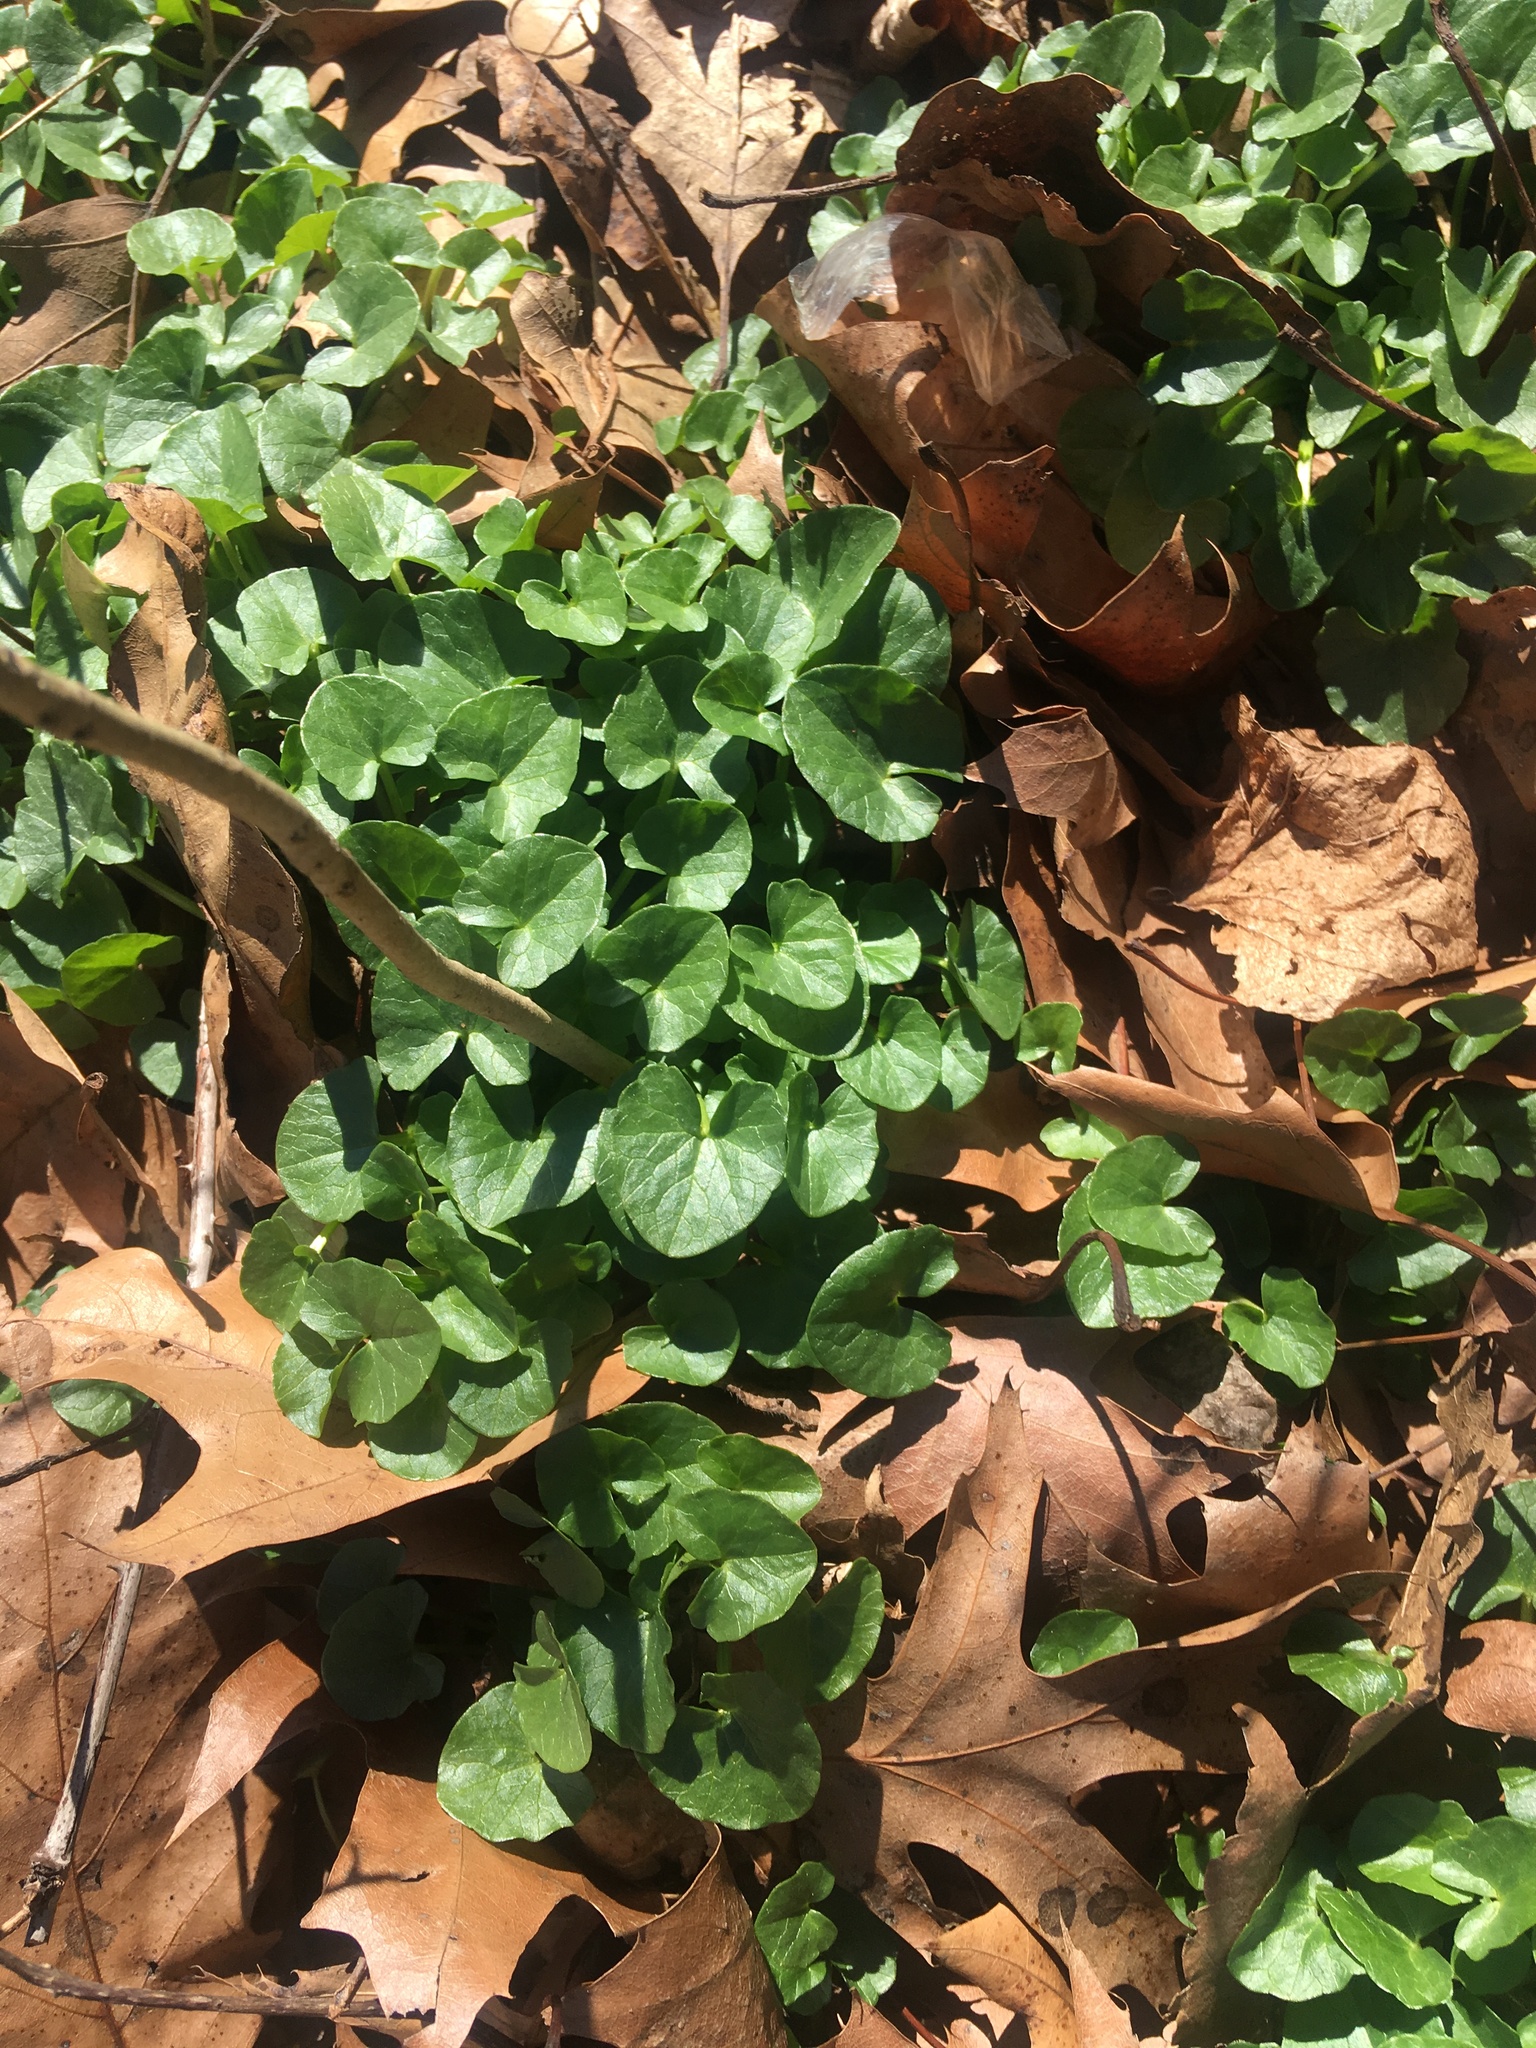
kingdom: Plantae
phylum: Tracheophyta
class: Magnoliopsida
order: Ranunculales
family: Ranunculaceae
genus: Ficaria
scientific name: Ficaria verna
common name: Lesser celandine
